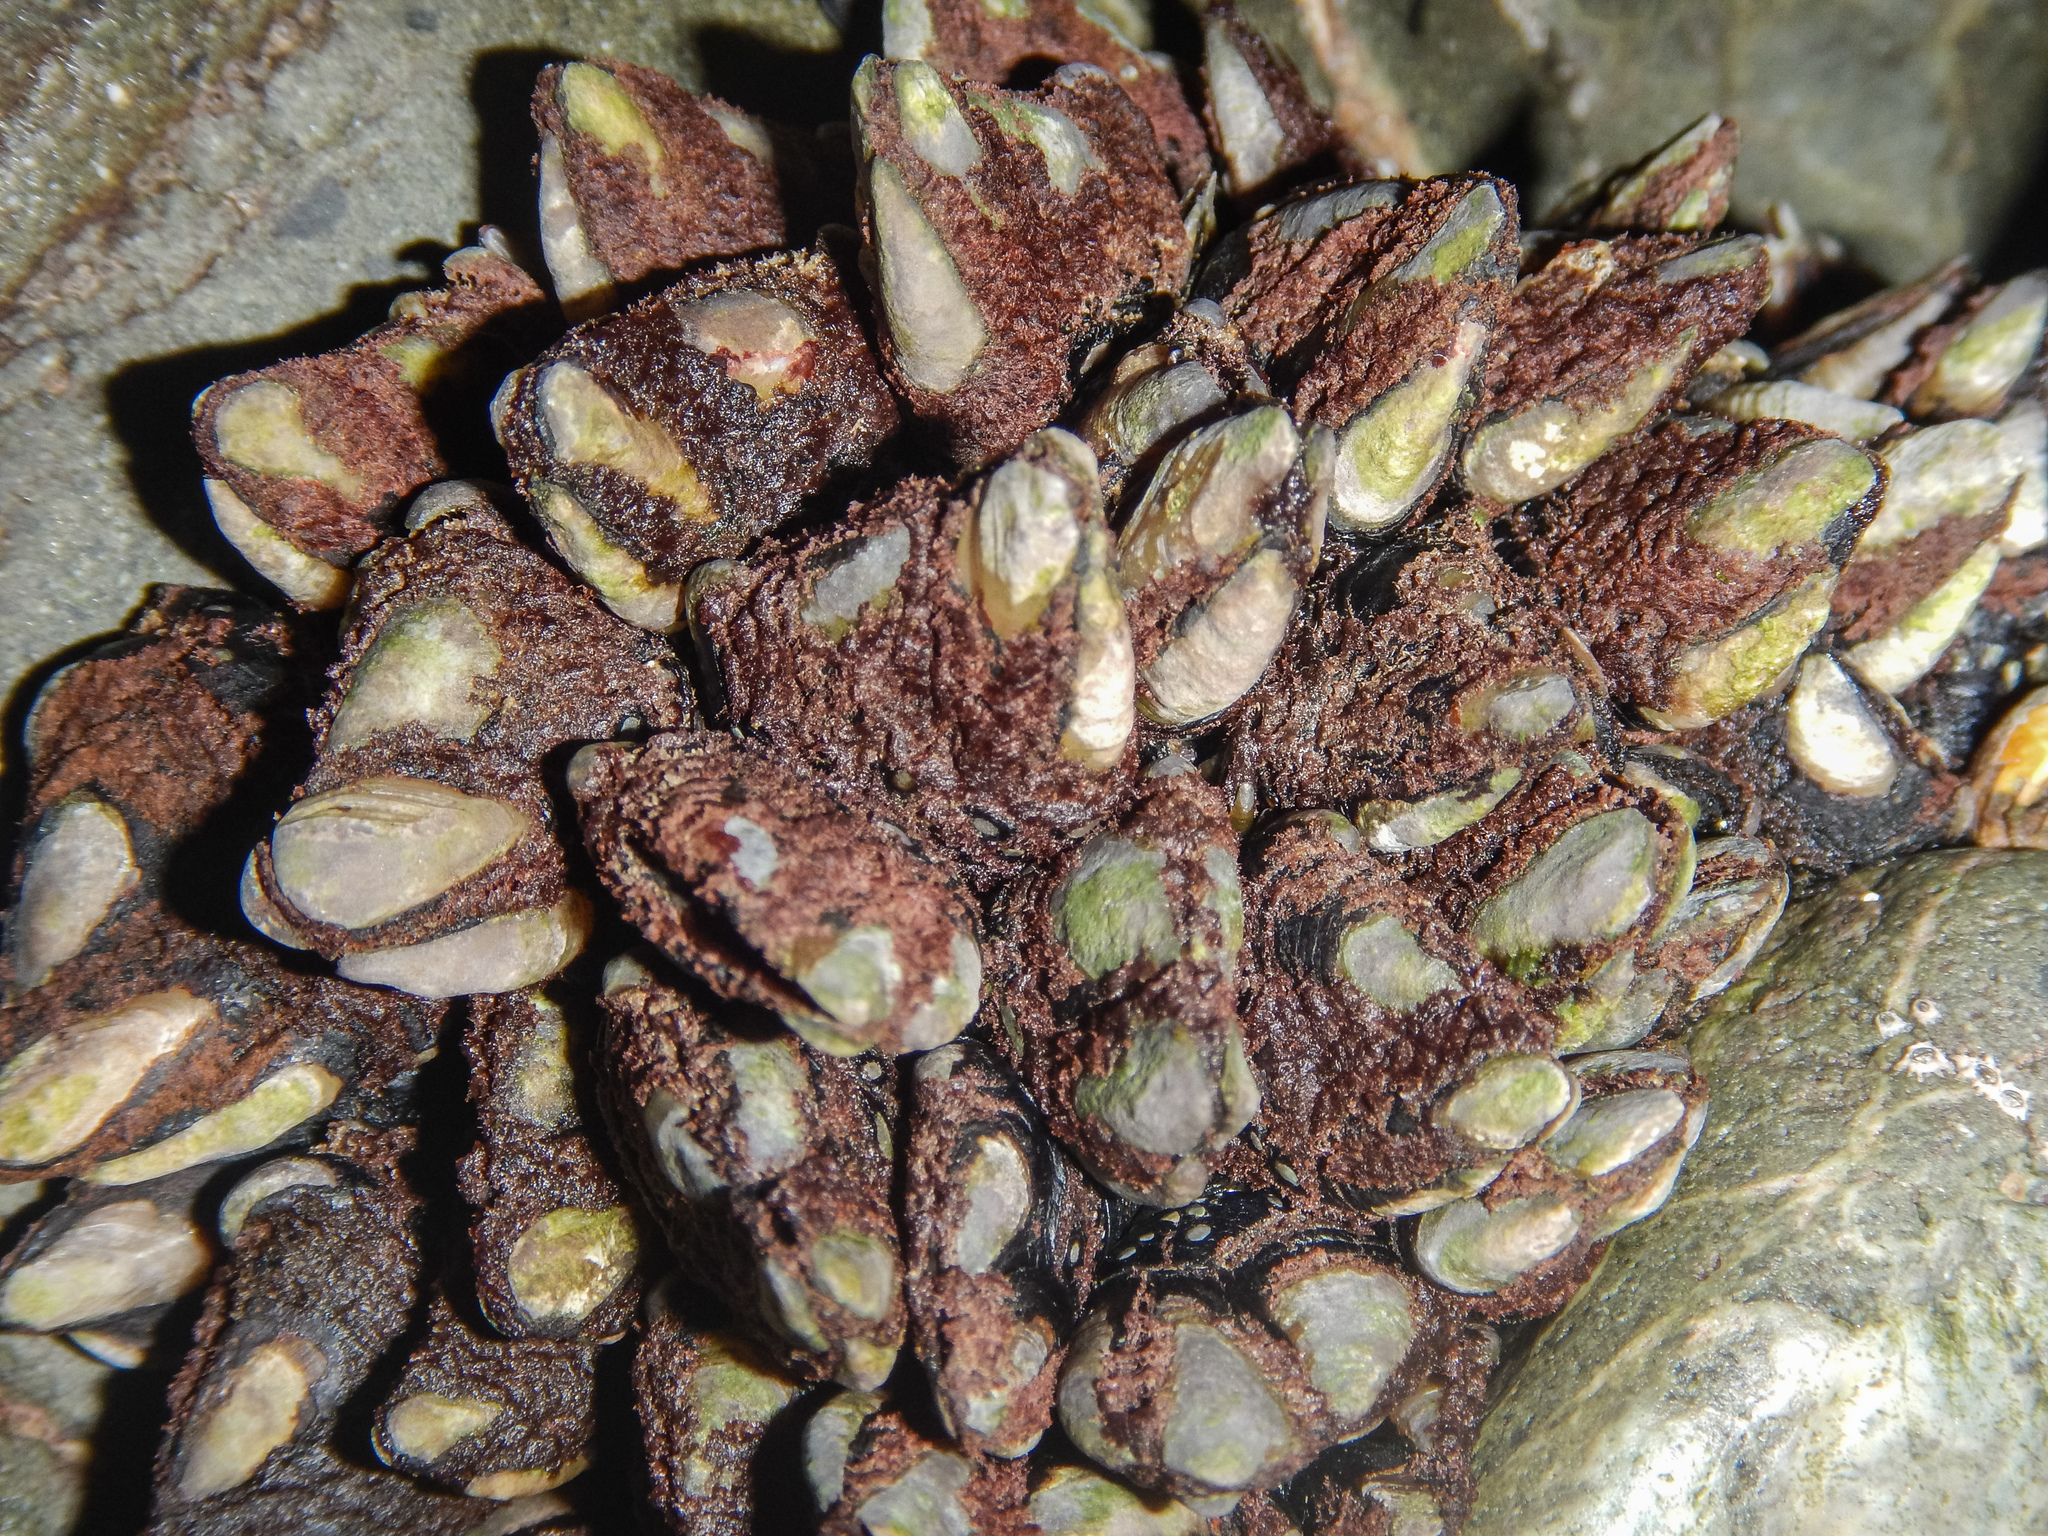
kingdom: Animalia
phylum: Arthropoda
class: Maxillopoda
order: Pedunculata
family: Calanticidae
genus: Calantica
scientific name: Calantica spinosa
